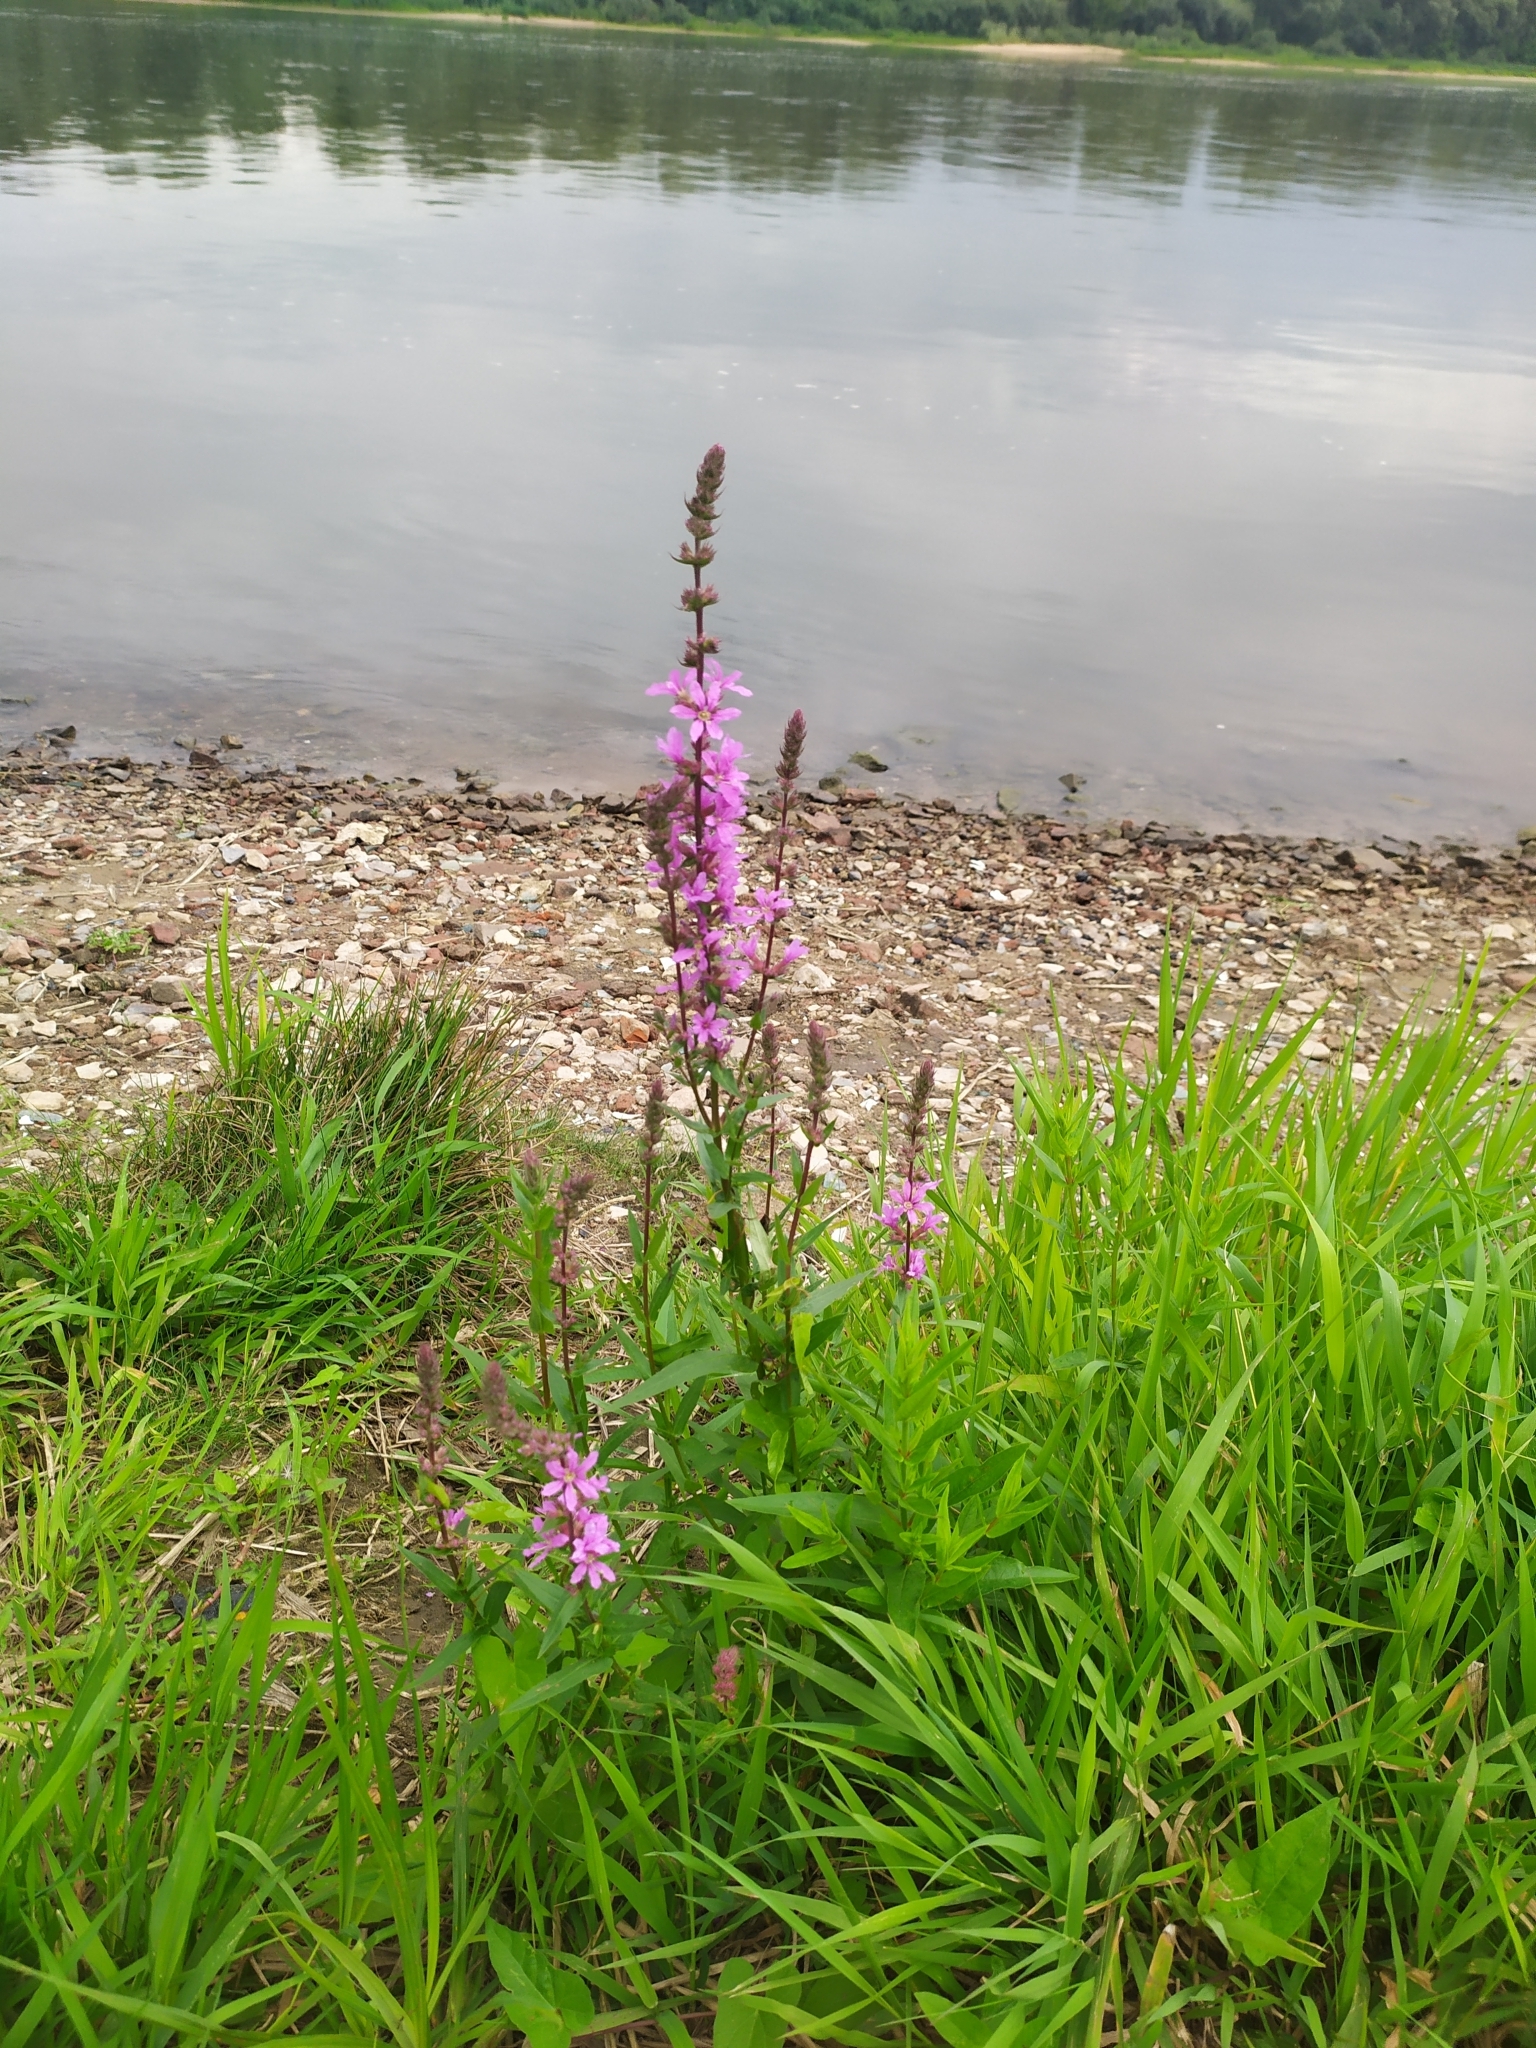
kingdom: Plantae
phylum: Tracheophyta
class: Magnoliopsida
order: Myrtales
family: Lythraceae
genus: Lythrum
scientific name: Lythrum salicaria
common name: Purple loosestrife
